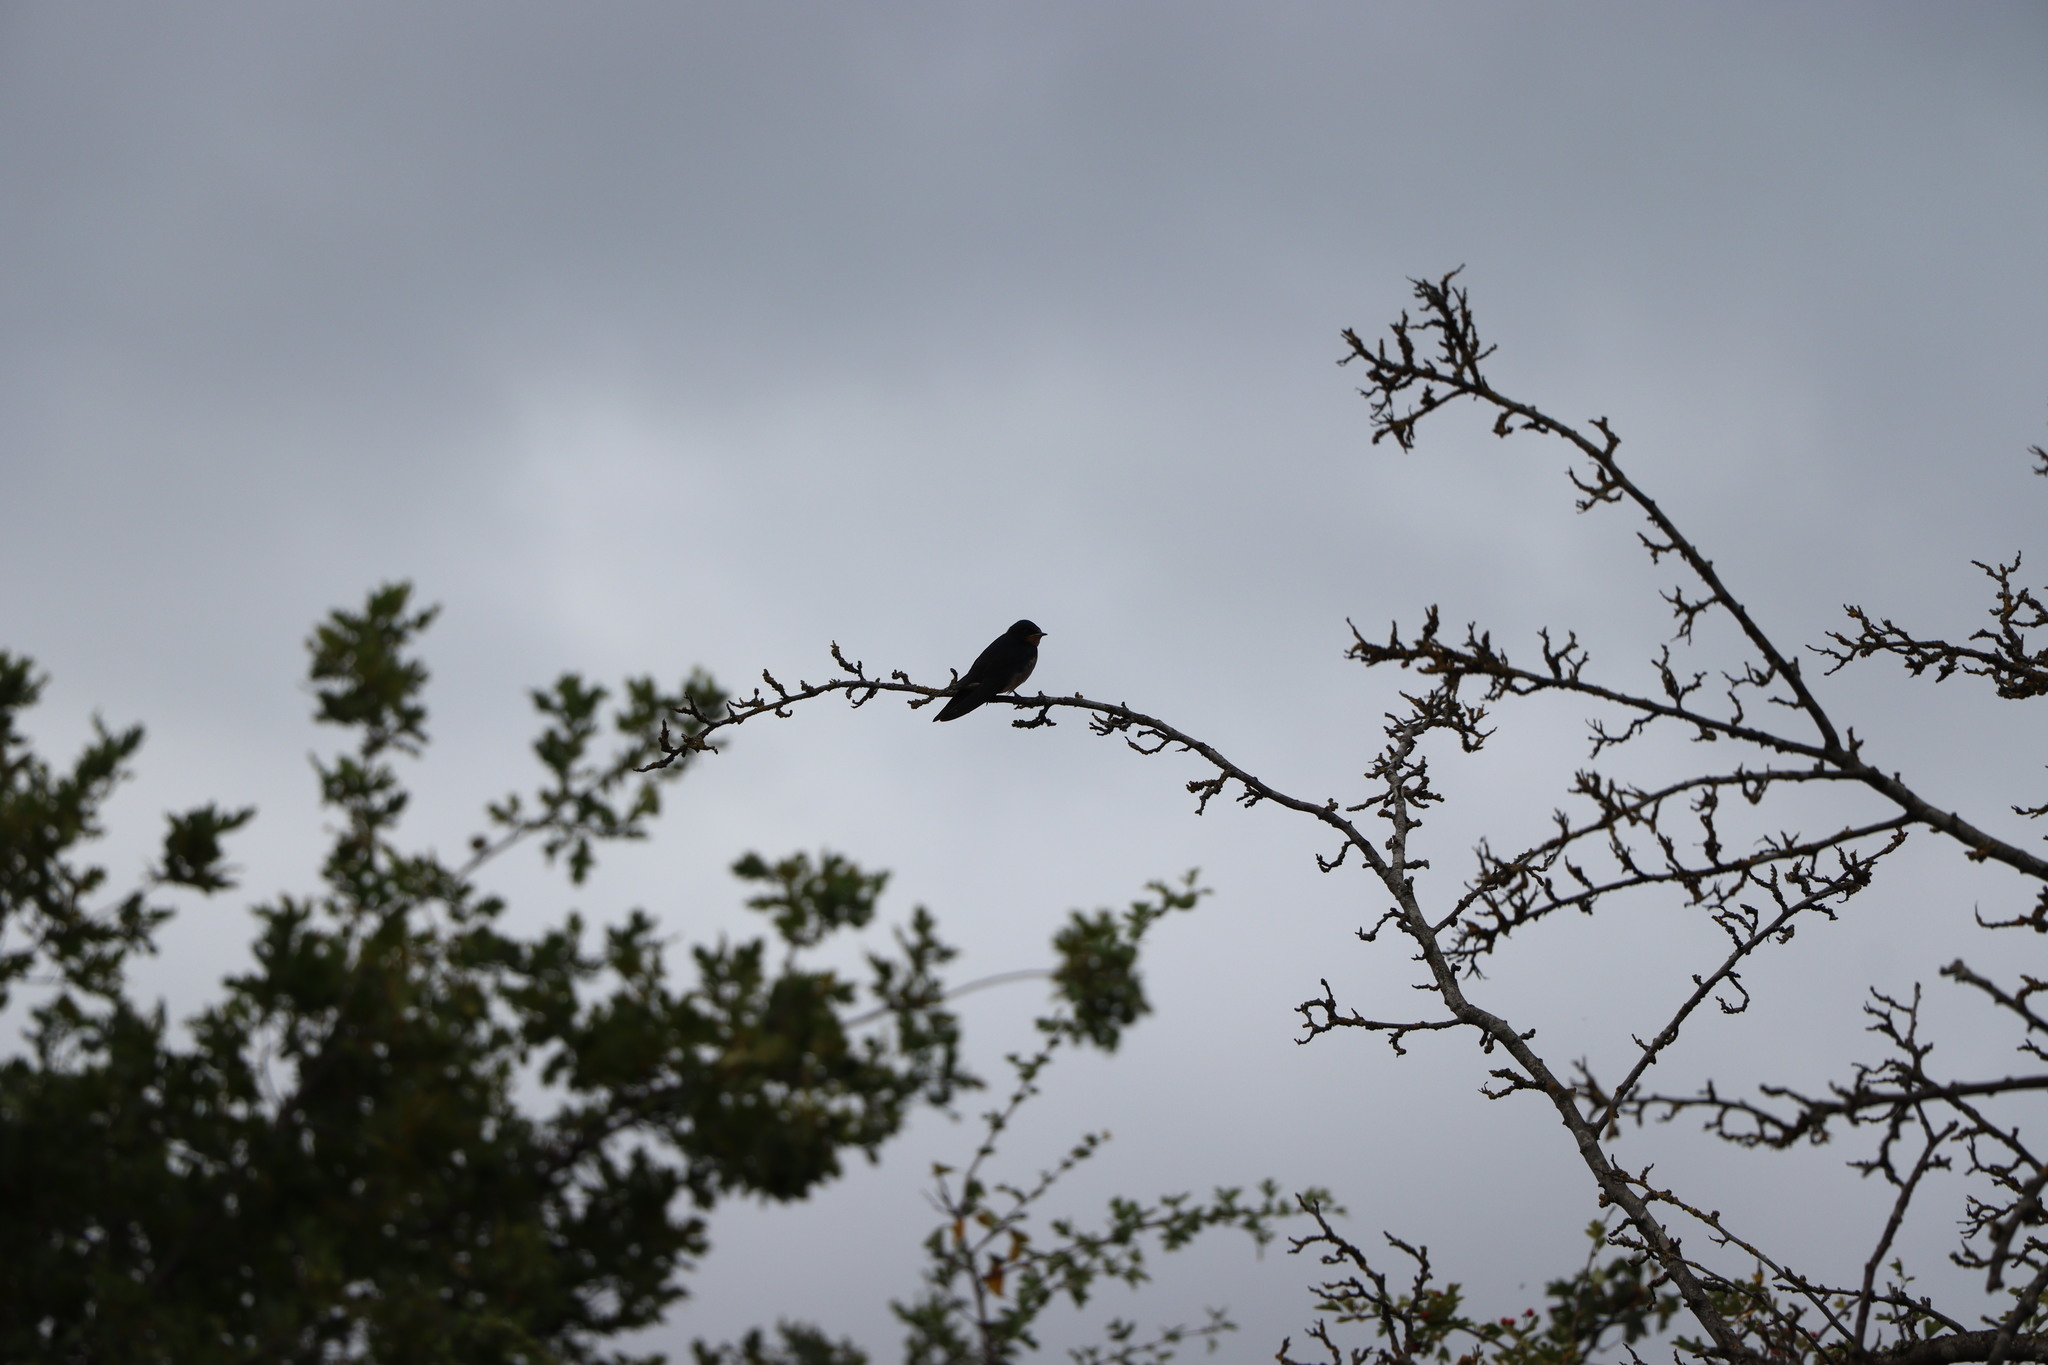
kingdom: Animalia
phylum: Chordata
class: Aves
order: Passeriformes
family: Hirundinidae
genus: Hirundo
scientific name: Hirundo rustica
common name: Barn swallow
